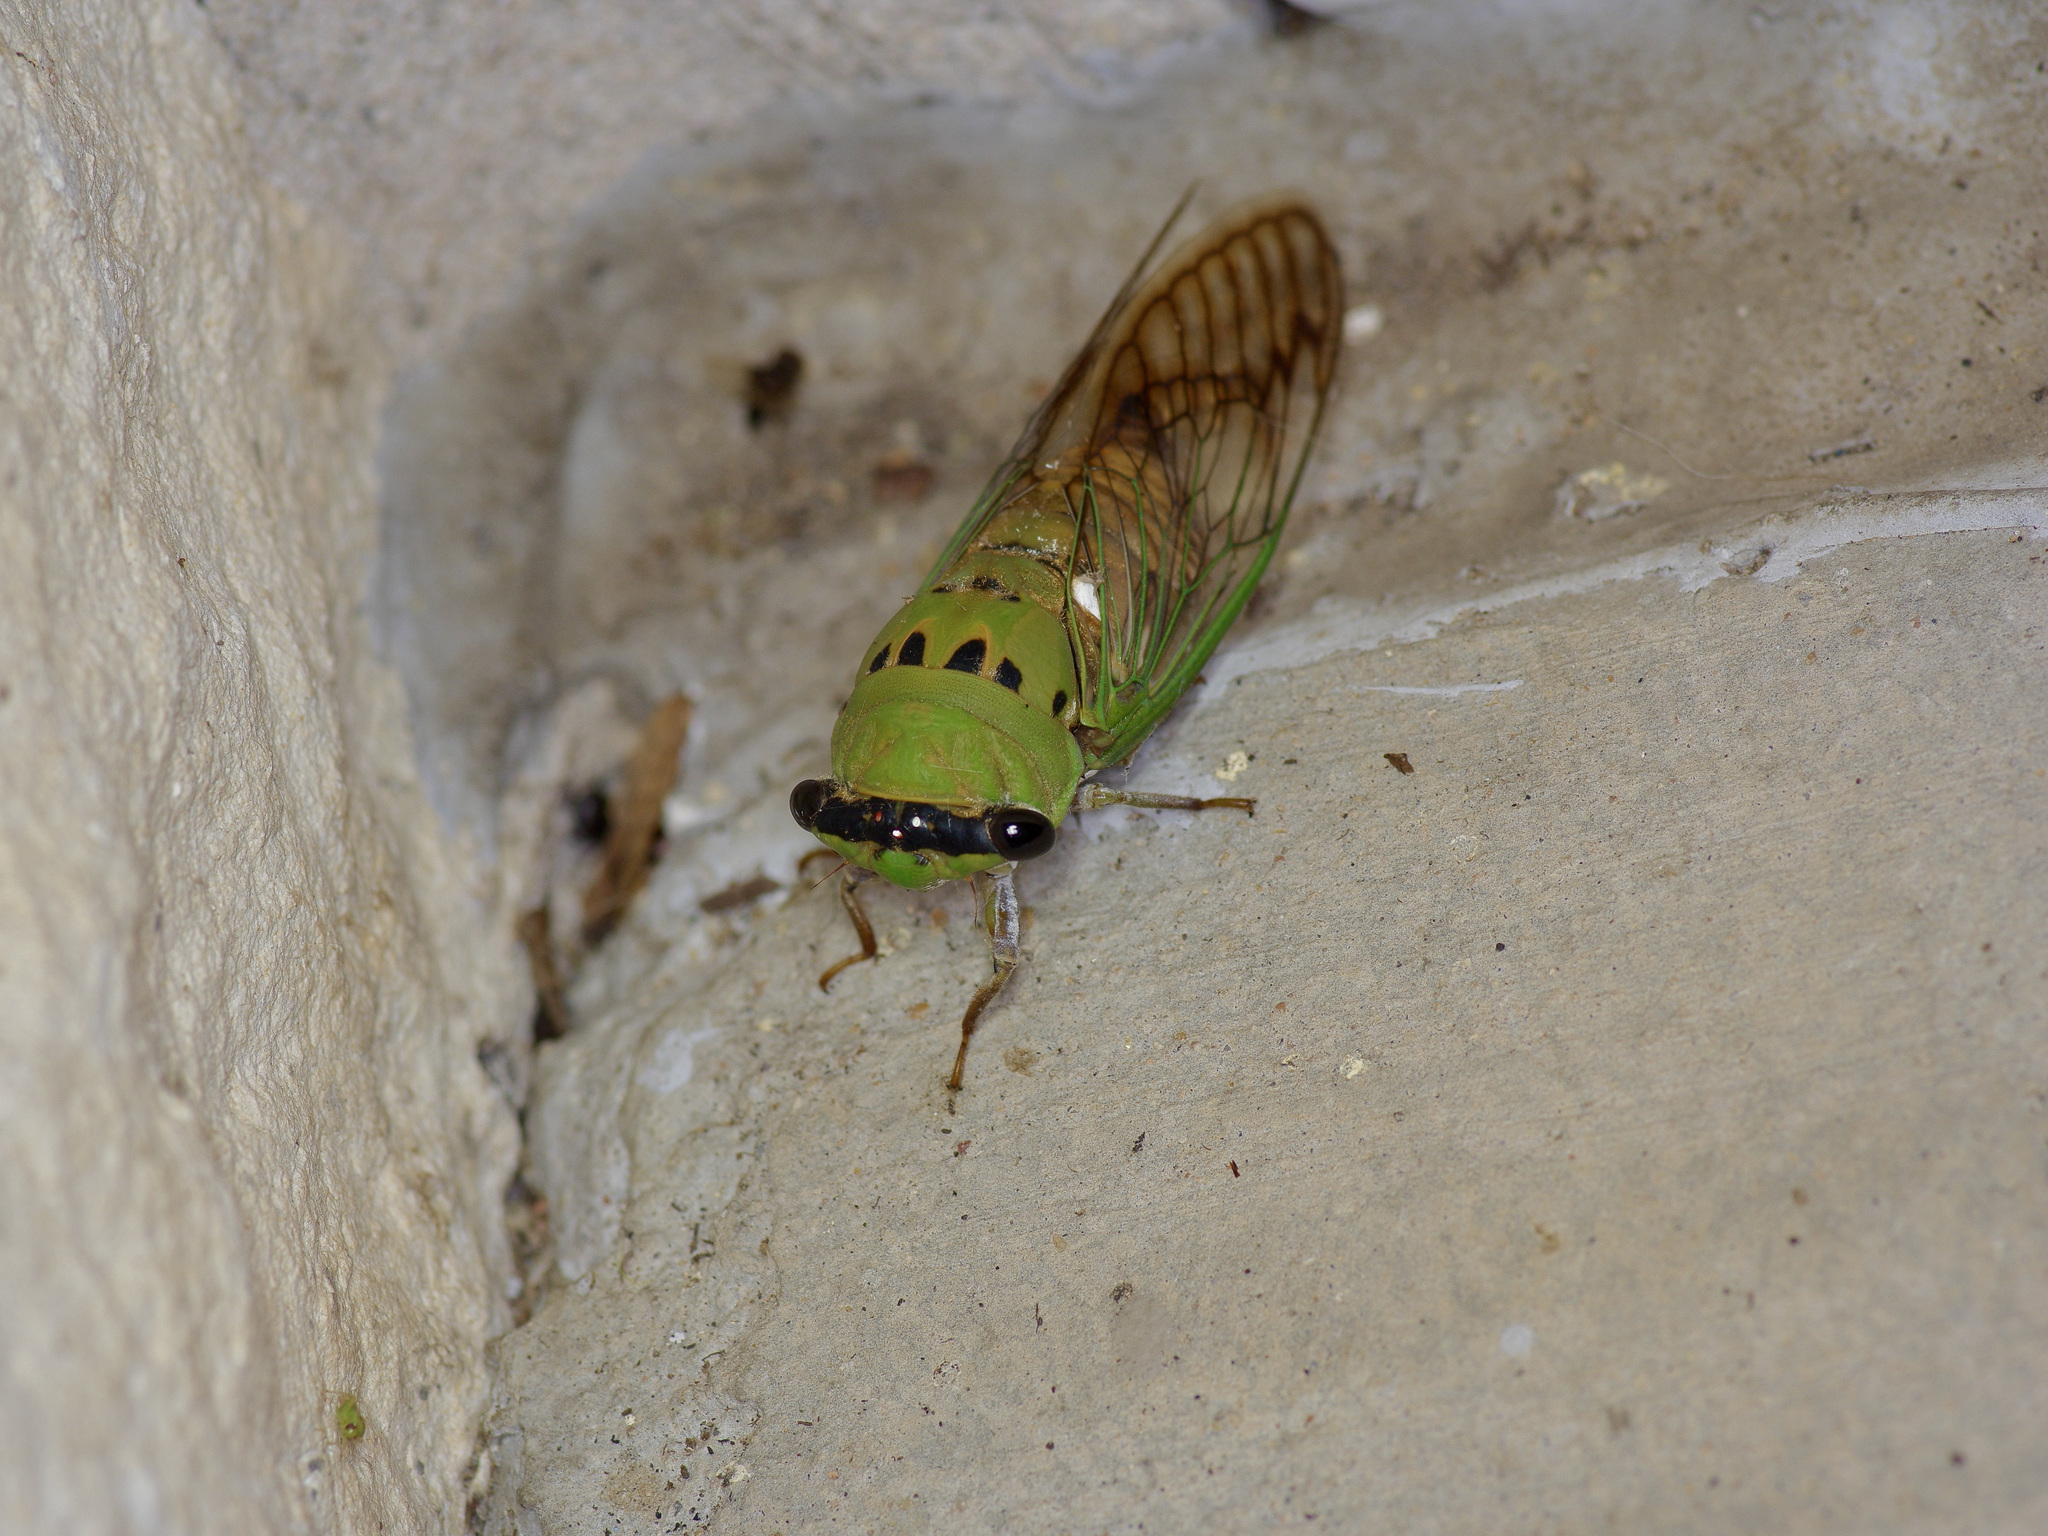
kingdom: Animalia
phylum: Arthropoda
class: Insecta
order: Hemiptera
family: Cicadidae
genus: Neotibicen
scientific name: Neotibicen superbus
